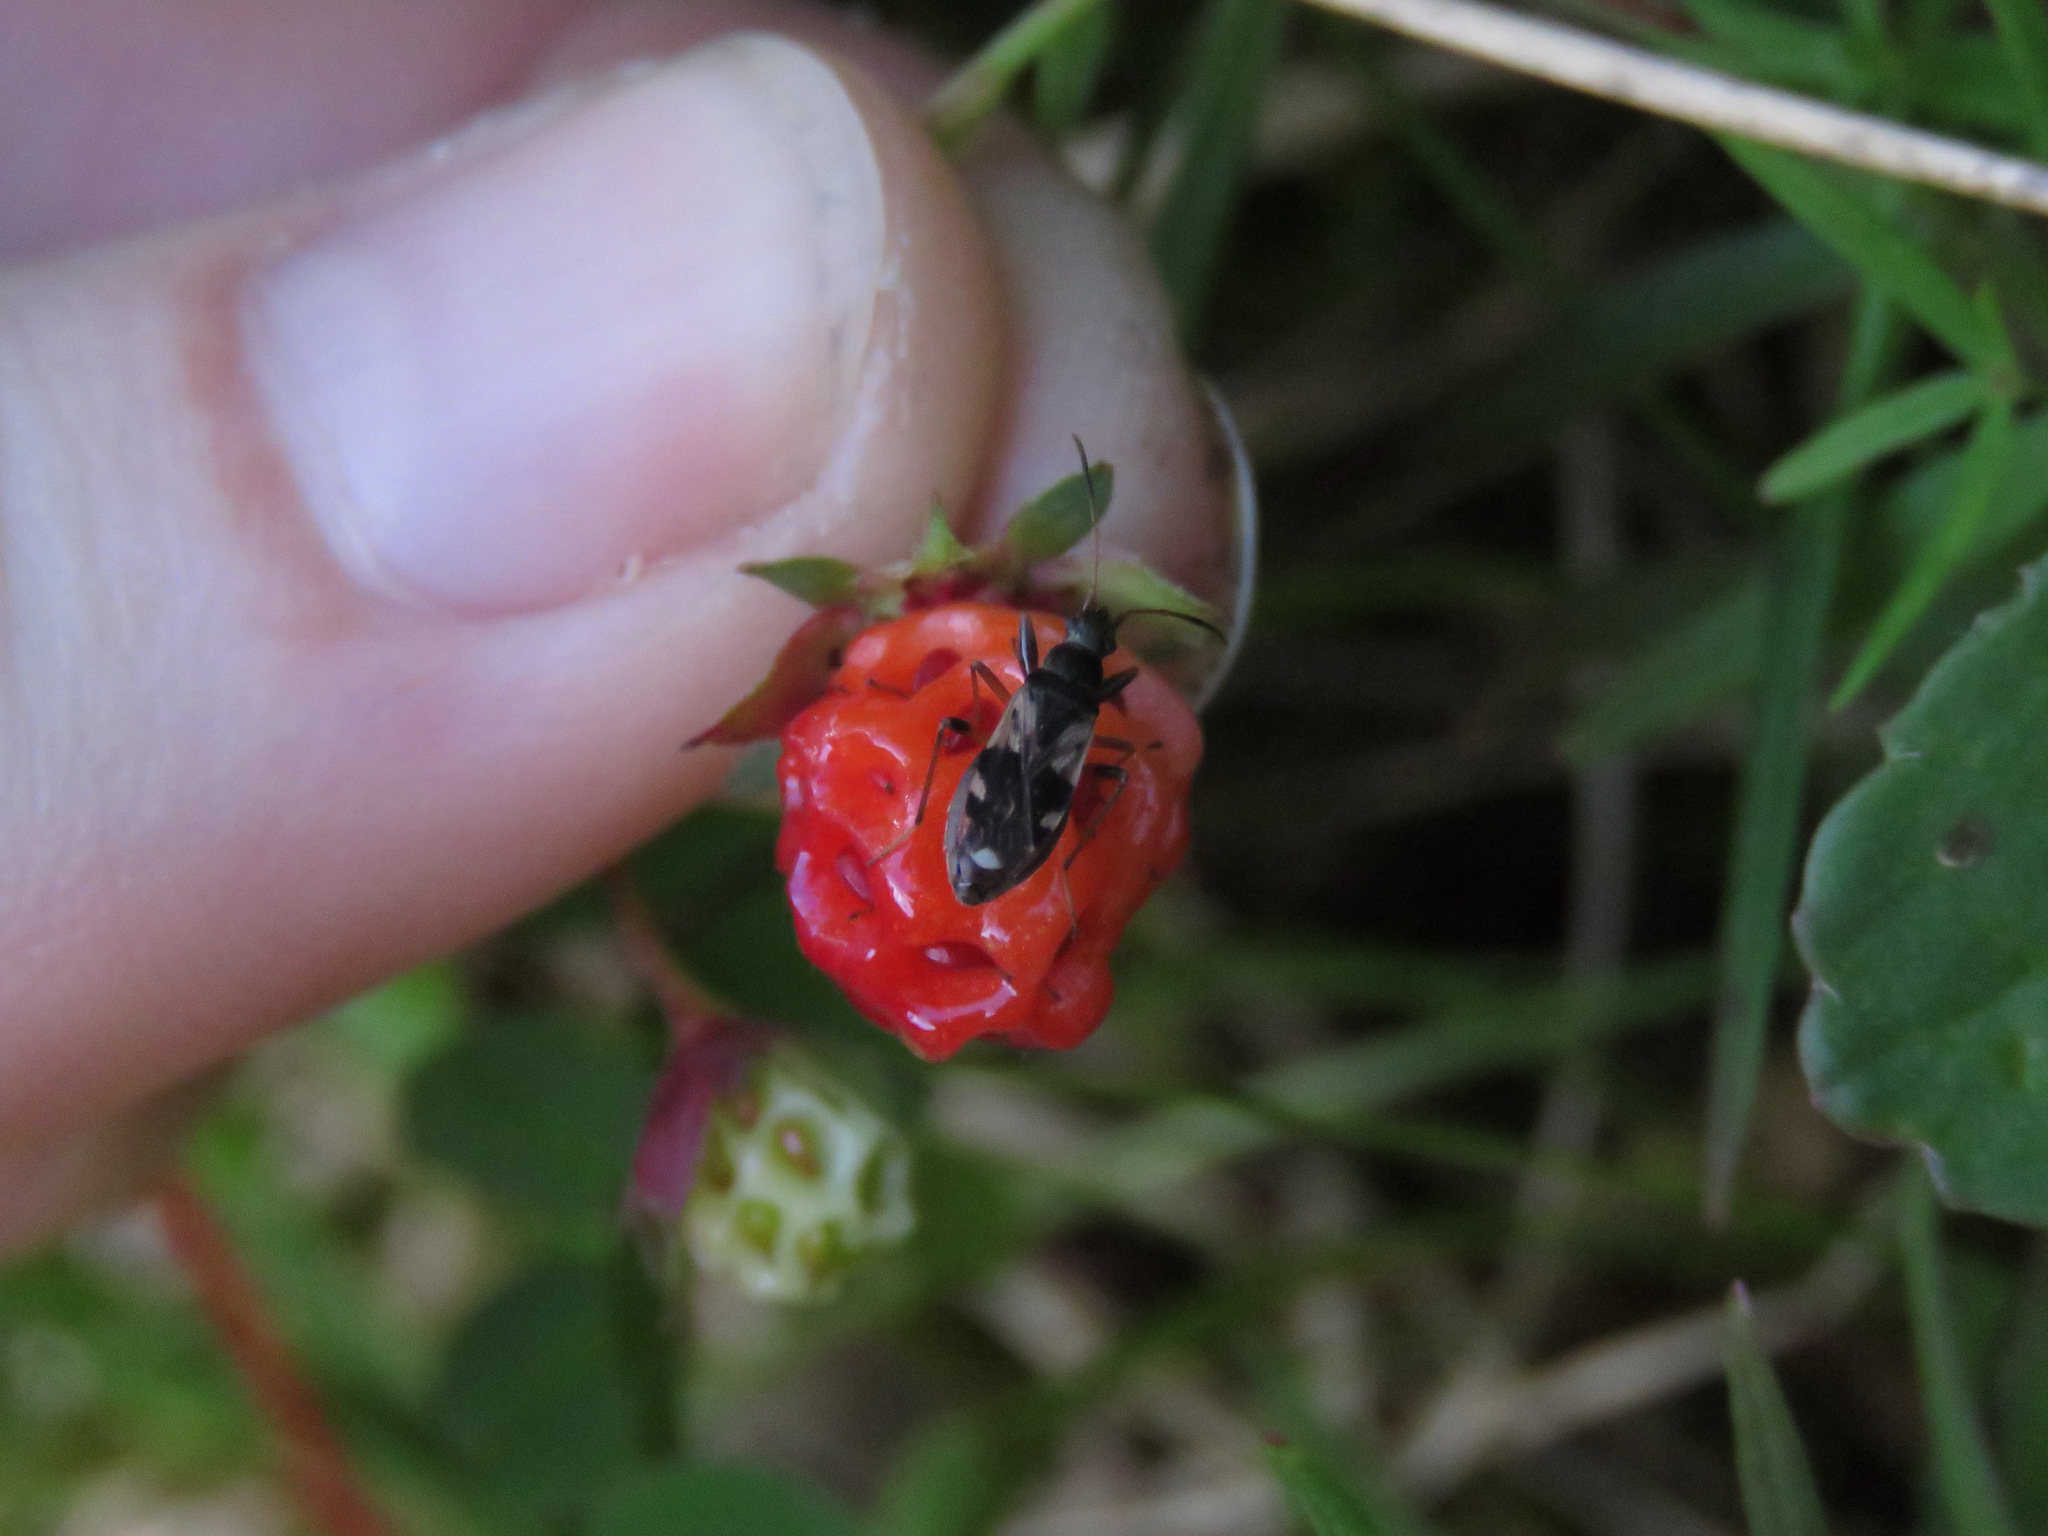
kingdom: Animalia
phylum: Arthropoda
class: Insecta
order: Hemiptera
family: Rhyparochromidae
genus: Ligyrocoris
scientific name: Ligyrocoris sylvestris
